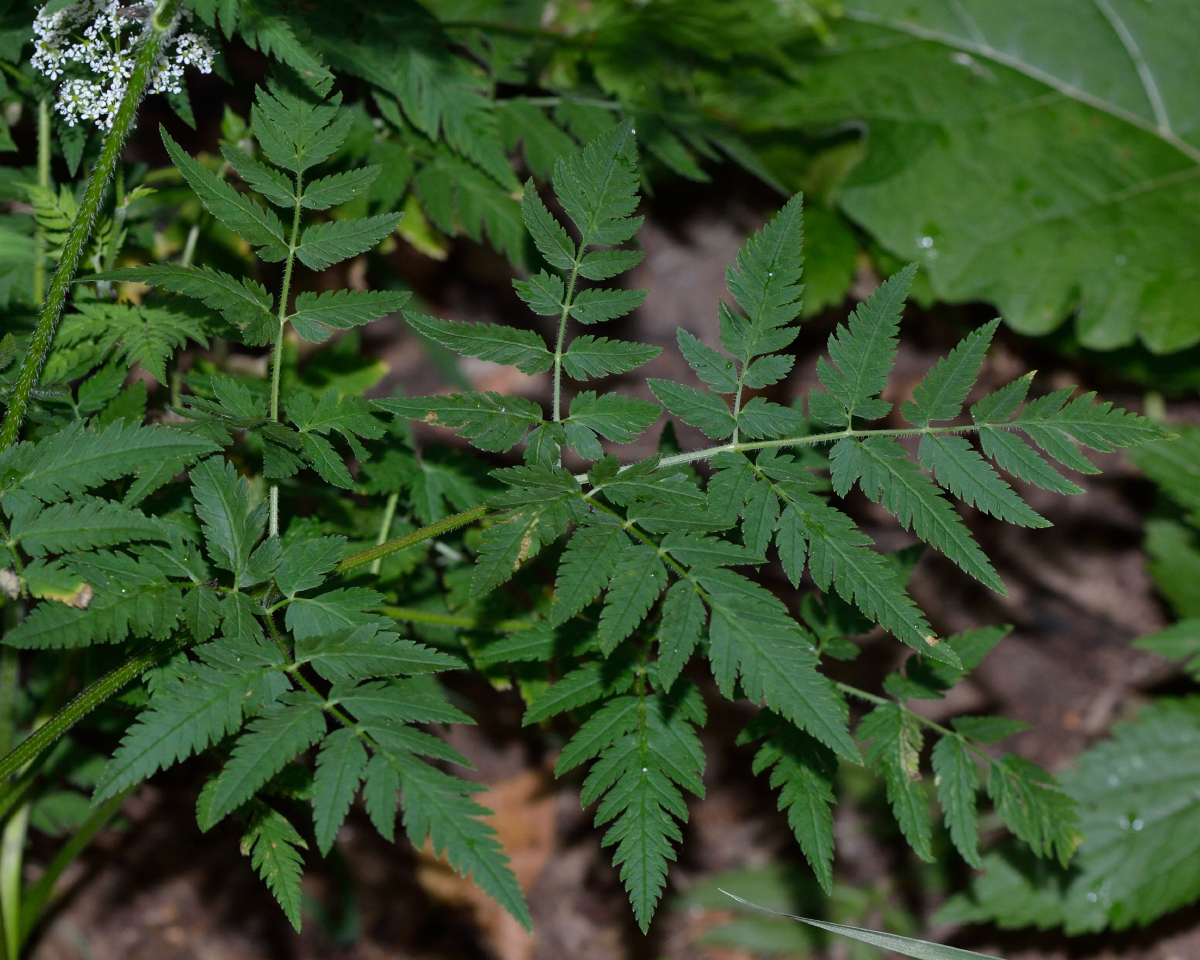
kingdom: Plantae
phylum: Tracheophyta
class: Magnoliopsida
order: Apiales
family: Apiaceae
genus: Chaerophyllum
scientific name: Chaerophyllum aureum
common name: Golden chervil
